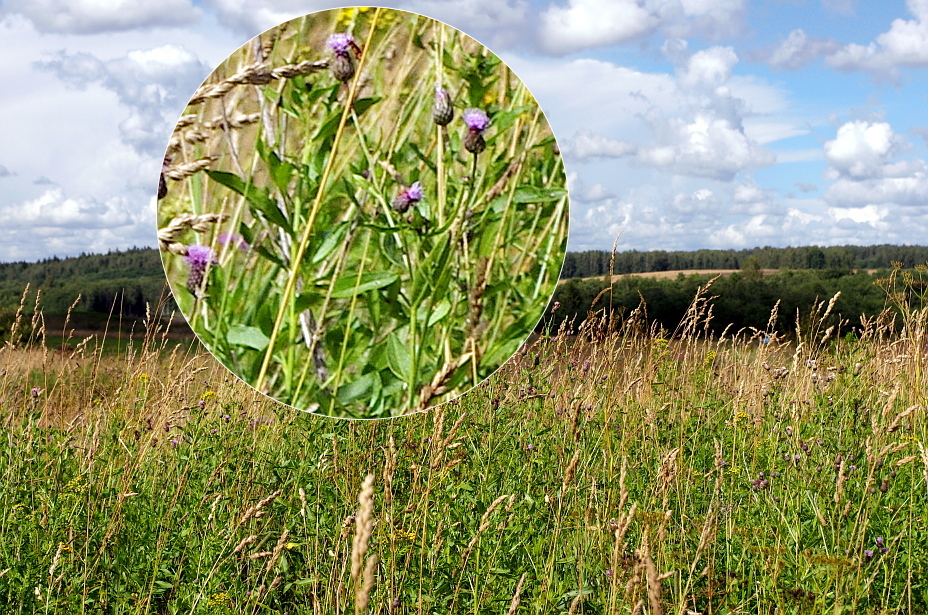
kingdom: Plantae
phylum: Tracheophyta
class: Magnoliopsida
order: Asterales
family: Asteraceae
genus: Cirsium
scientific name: Cirsium arvense
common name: Creeping thistle
